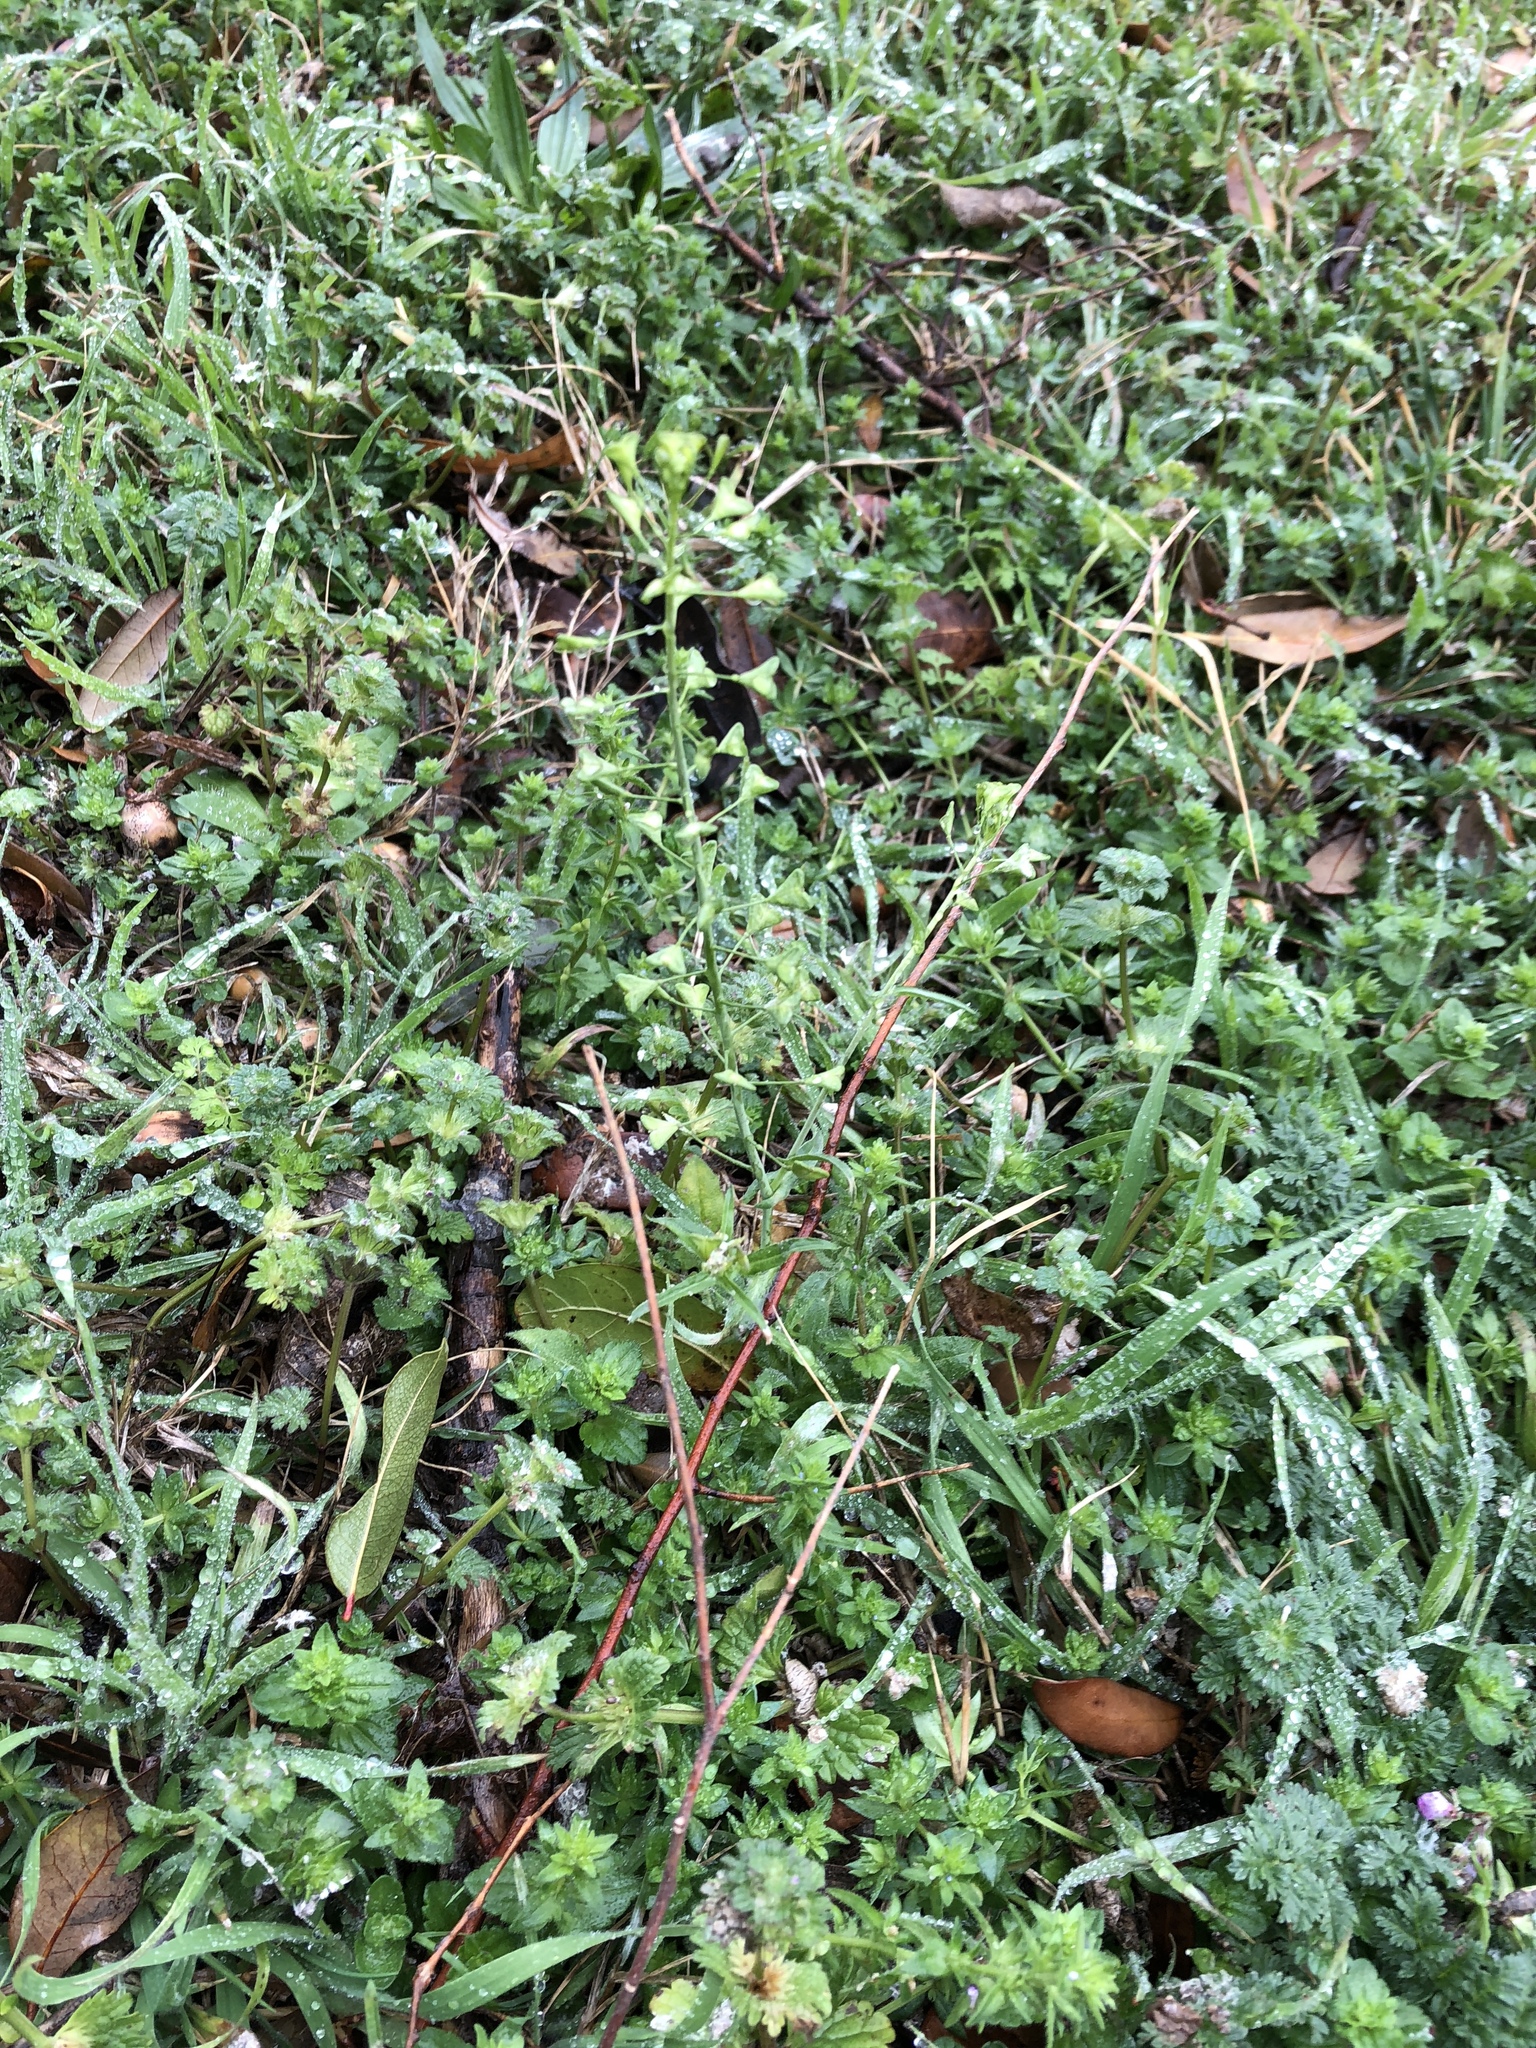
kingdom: Plantae
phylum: Tracheophyta
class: Magnoliopsida
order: Brassicales
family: Brassicaceae
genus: Capsella
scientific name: Capsella bursa-pastoris
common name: Shepherd's purse
